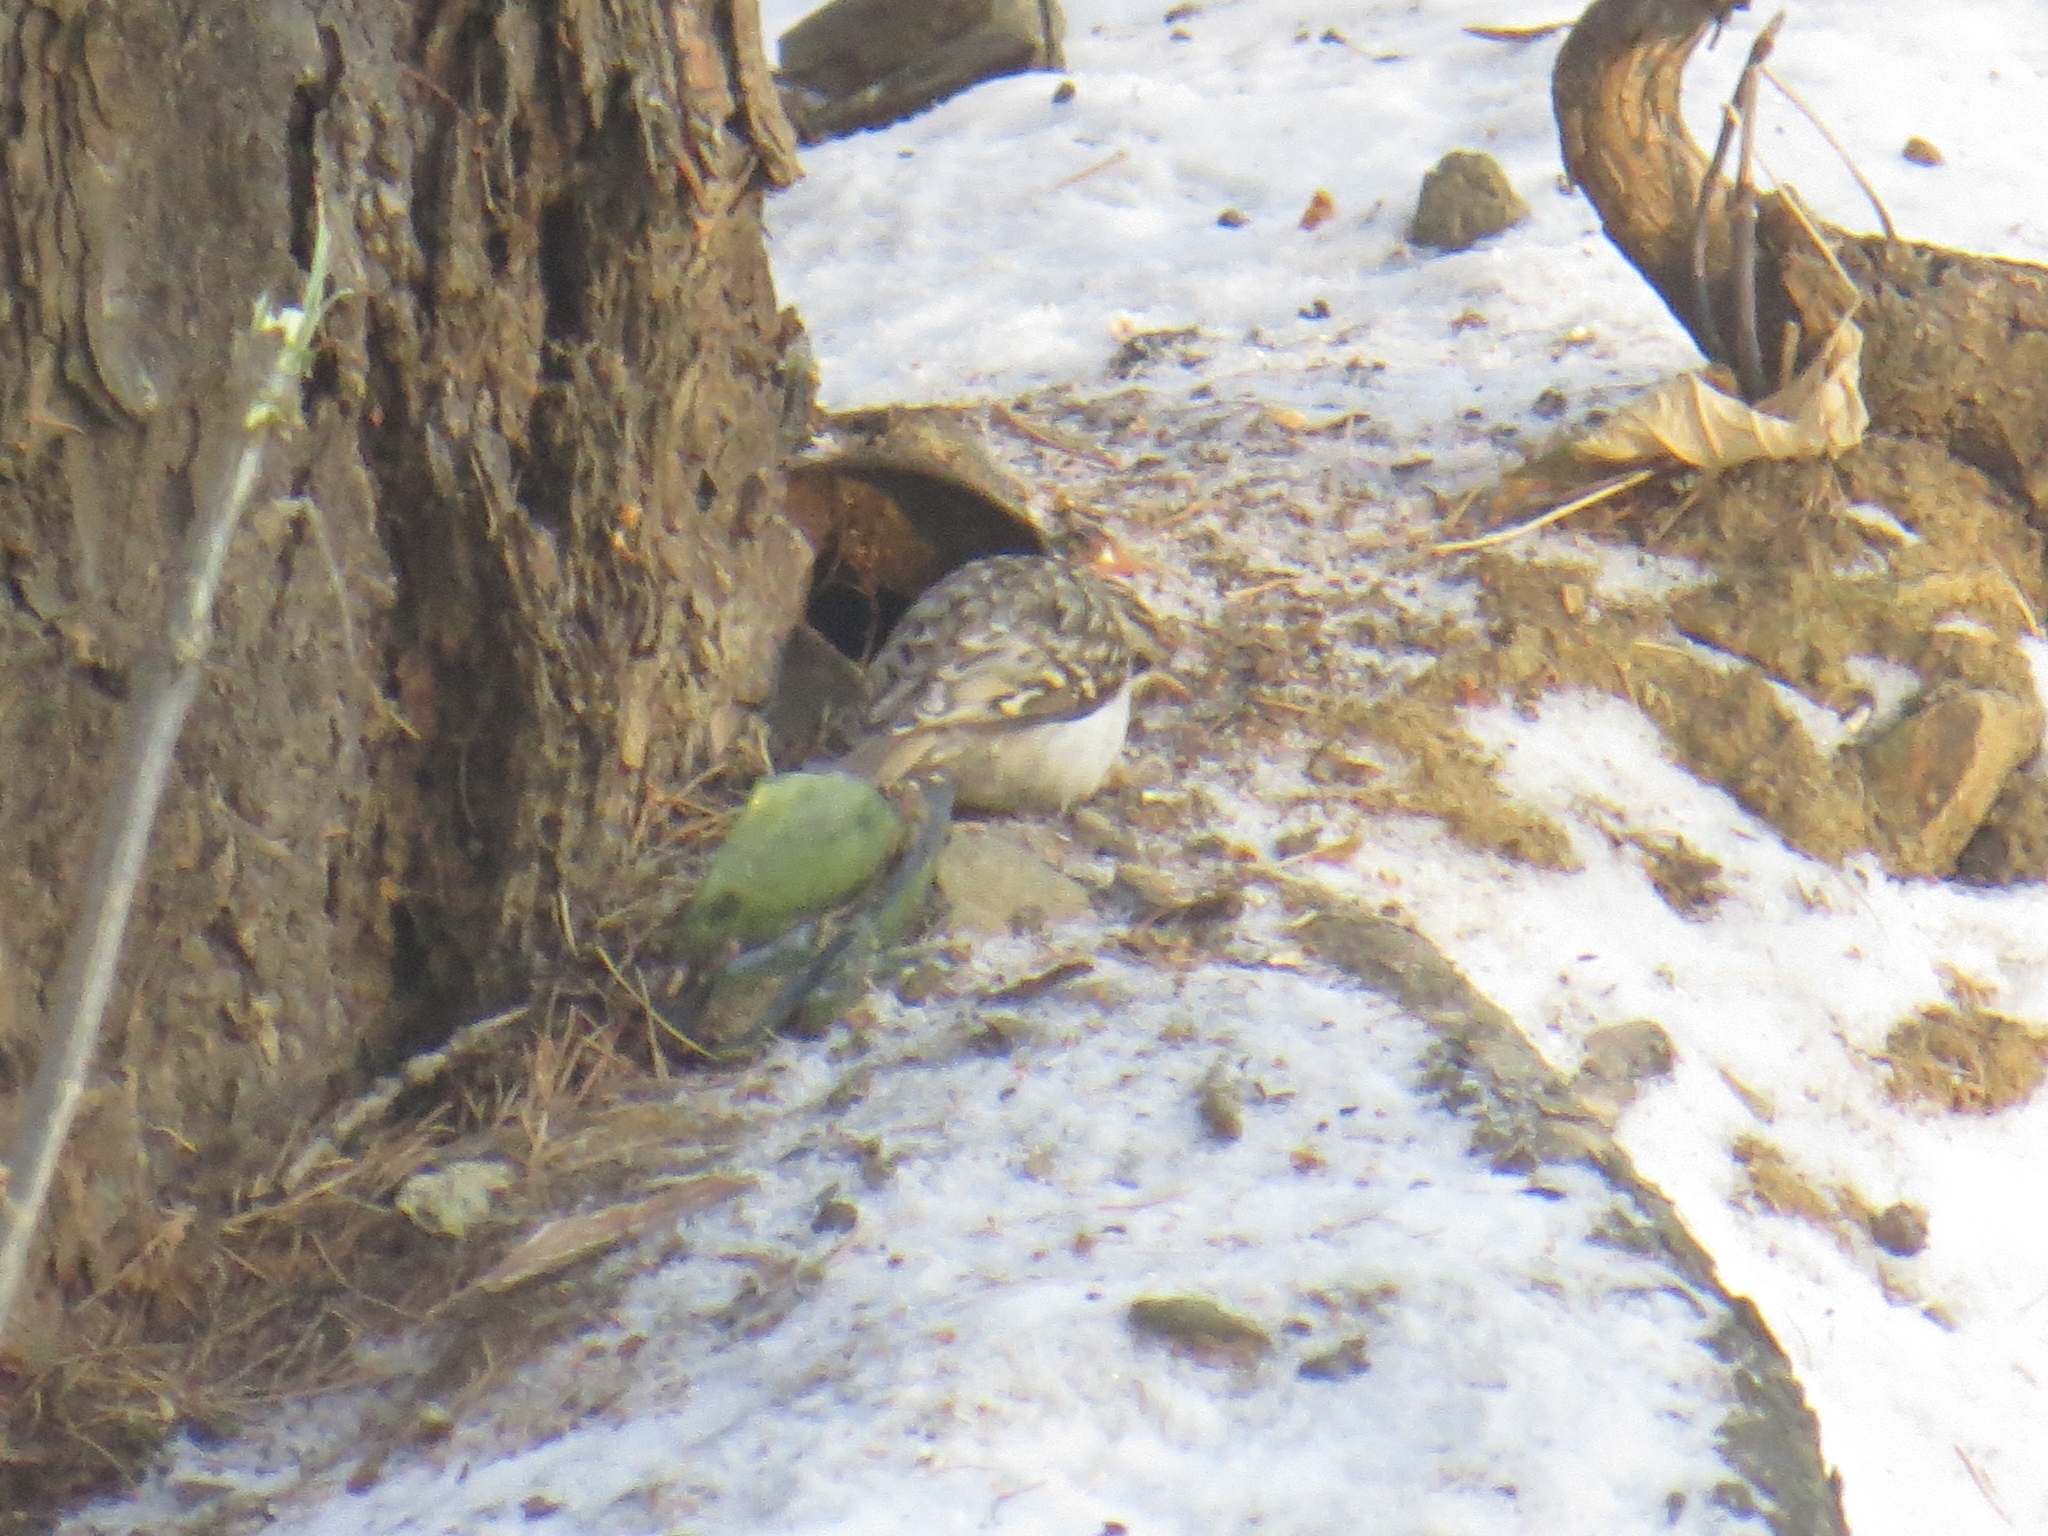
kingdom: Animalia
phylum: Chordata
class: Aves
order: Passeriformes
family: Certhiidae
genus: Certhia
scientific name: Certhia familiaris
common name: Eurasian treecreeper
